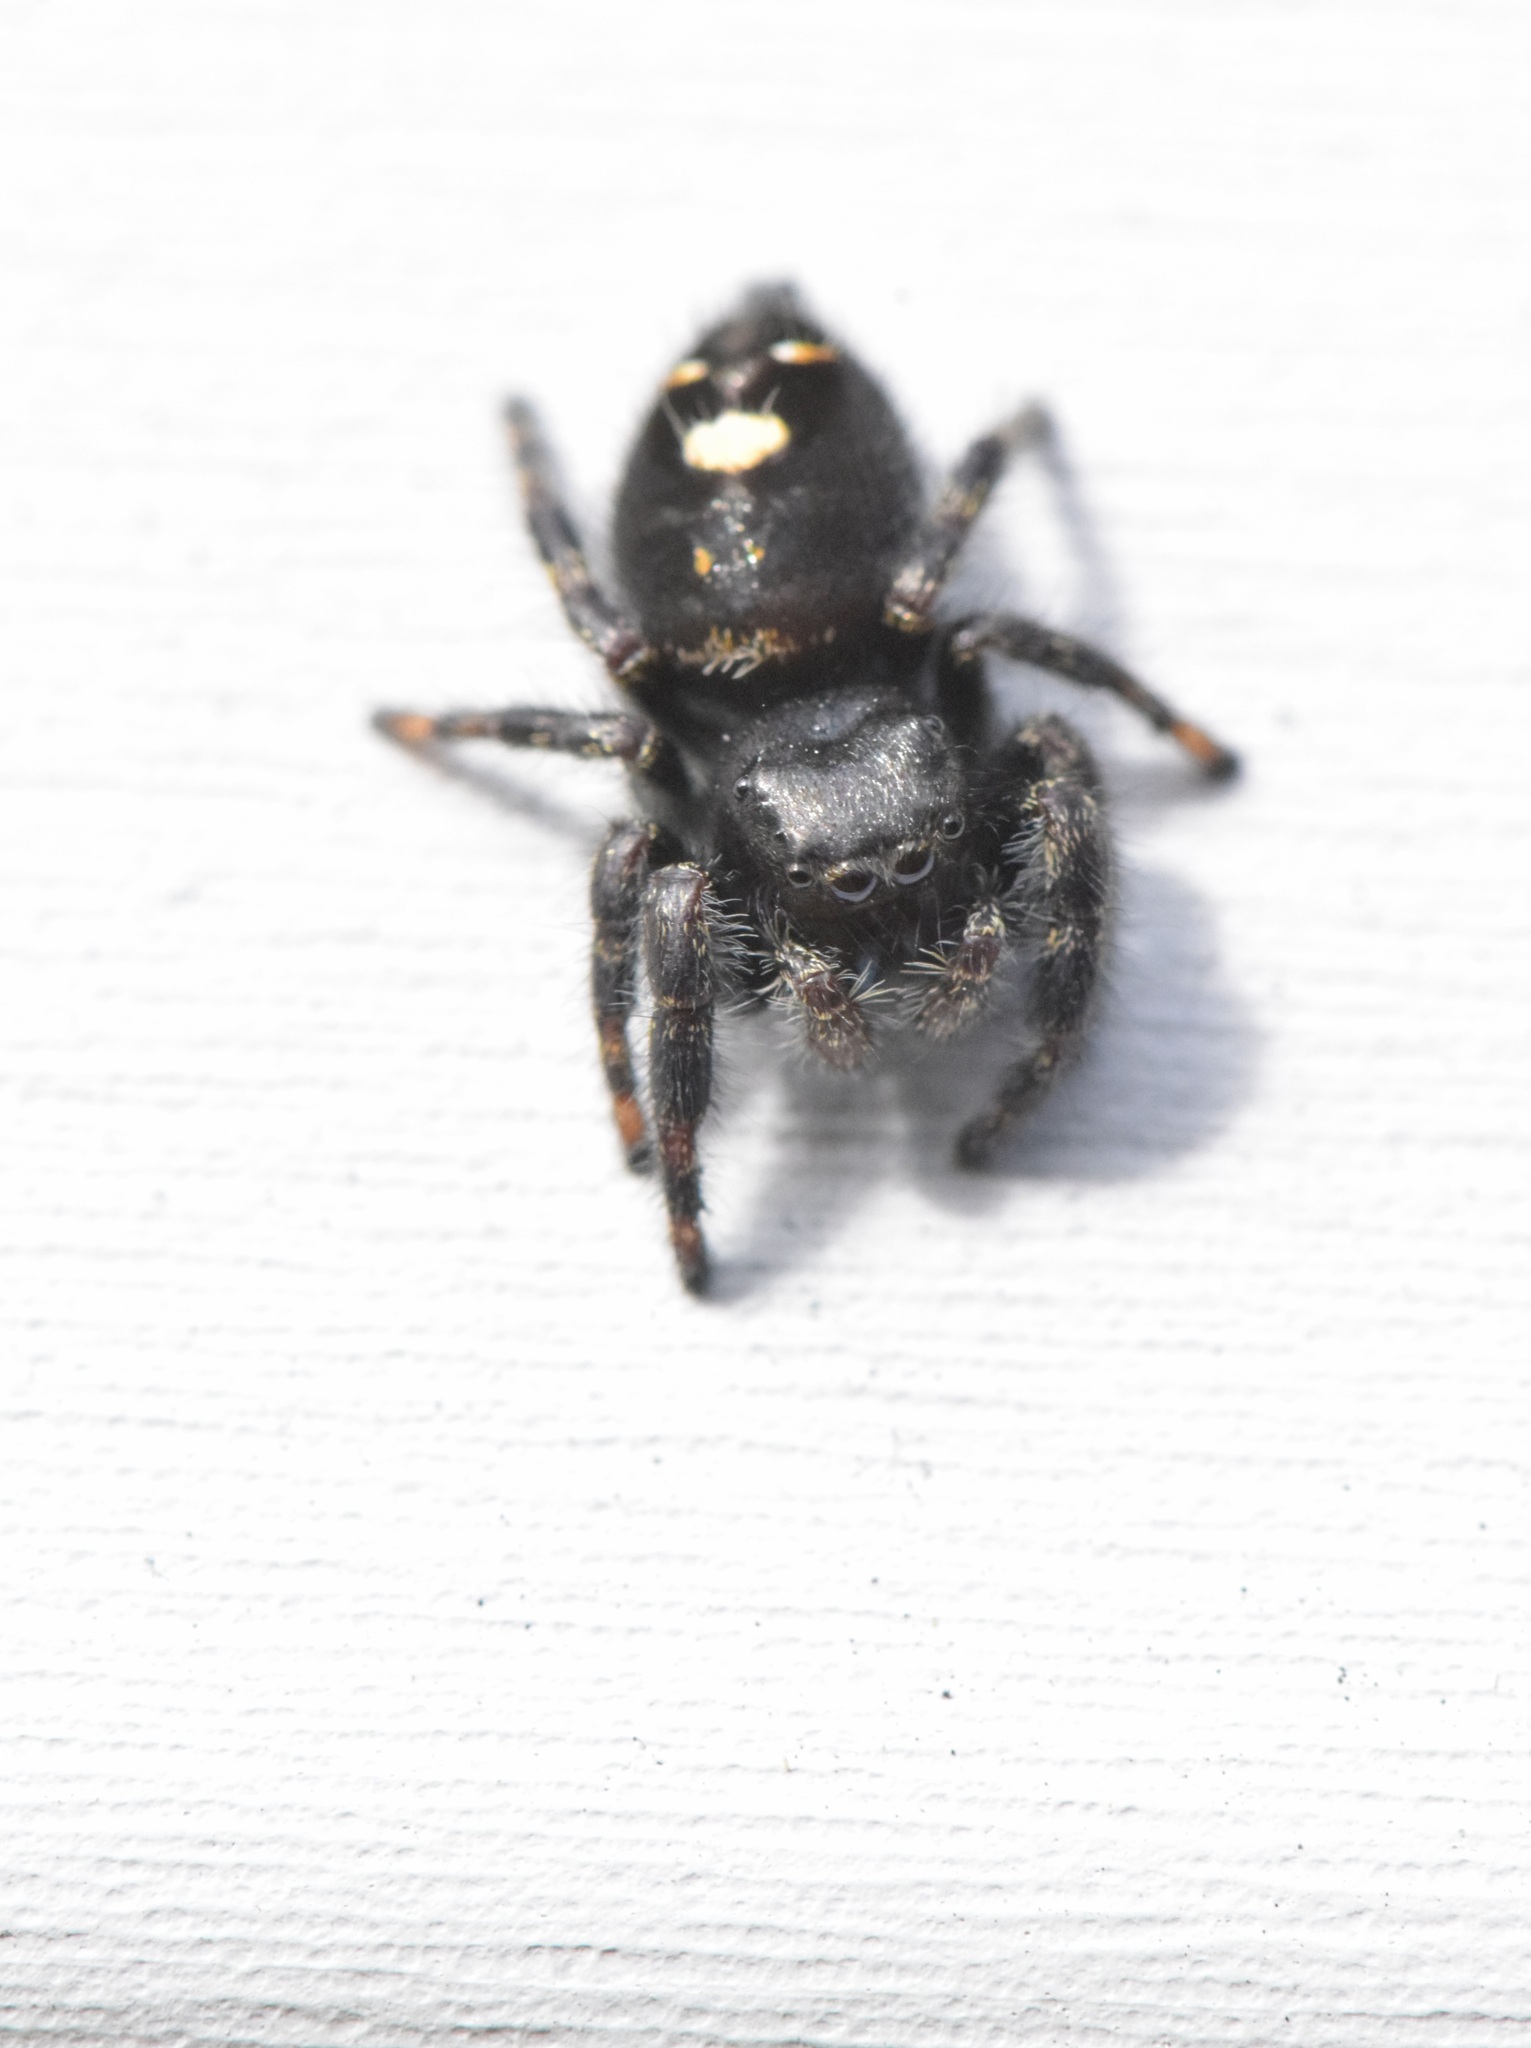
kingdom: Animalia
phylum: Arthropoda
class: Arachnida
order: Araneae
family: Salticidae
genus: Phidippus
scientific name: Phidippus audax
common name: Bold jumper
